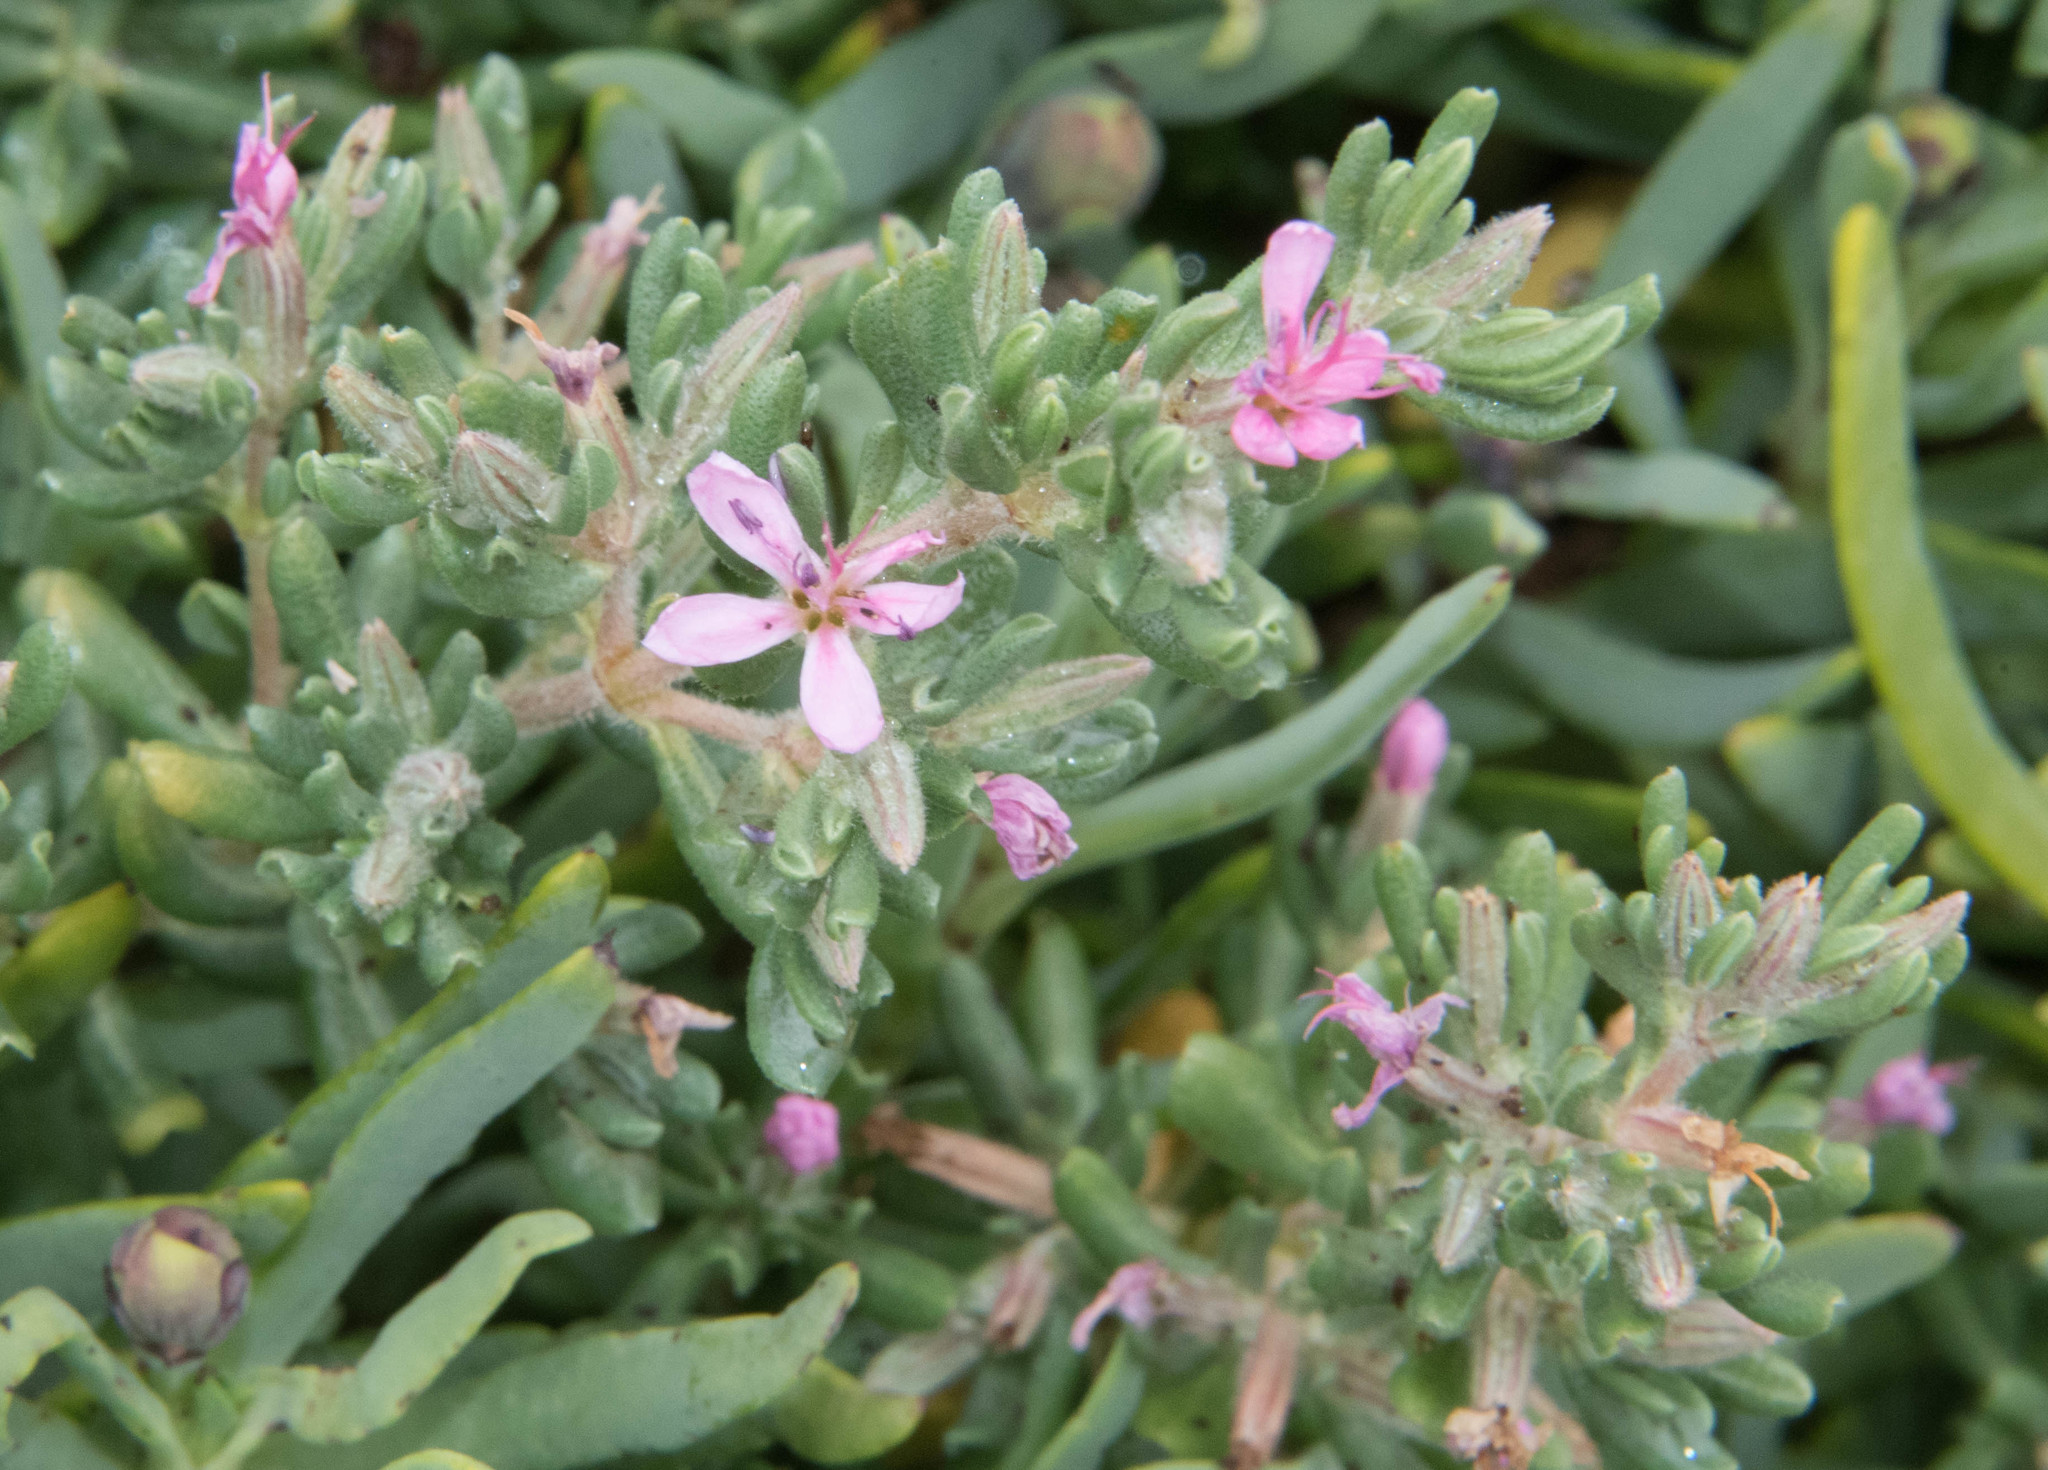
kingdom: Plantae
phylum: Tracheophyta
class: Magnoliopsida
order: Caryophyllales
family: Frankeniaceae
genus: Frankenia
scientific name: Frankenia salina
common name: Alkali seaheath
